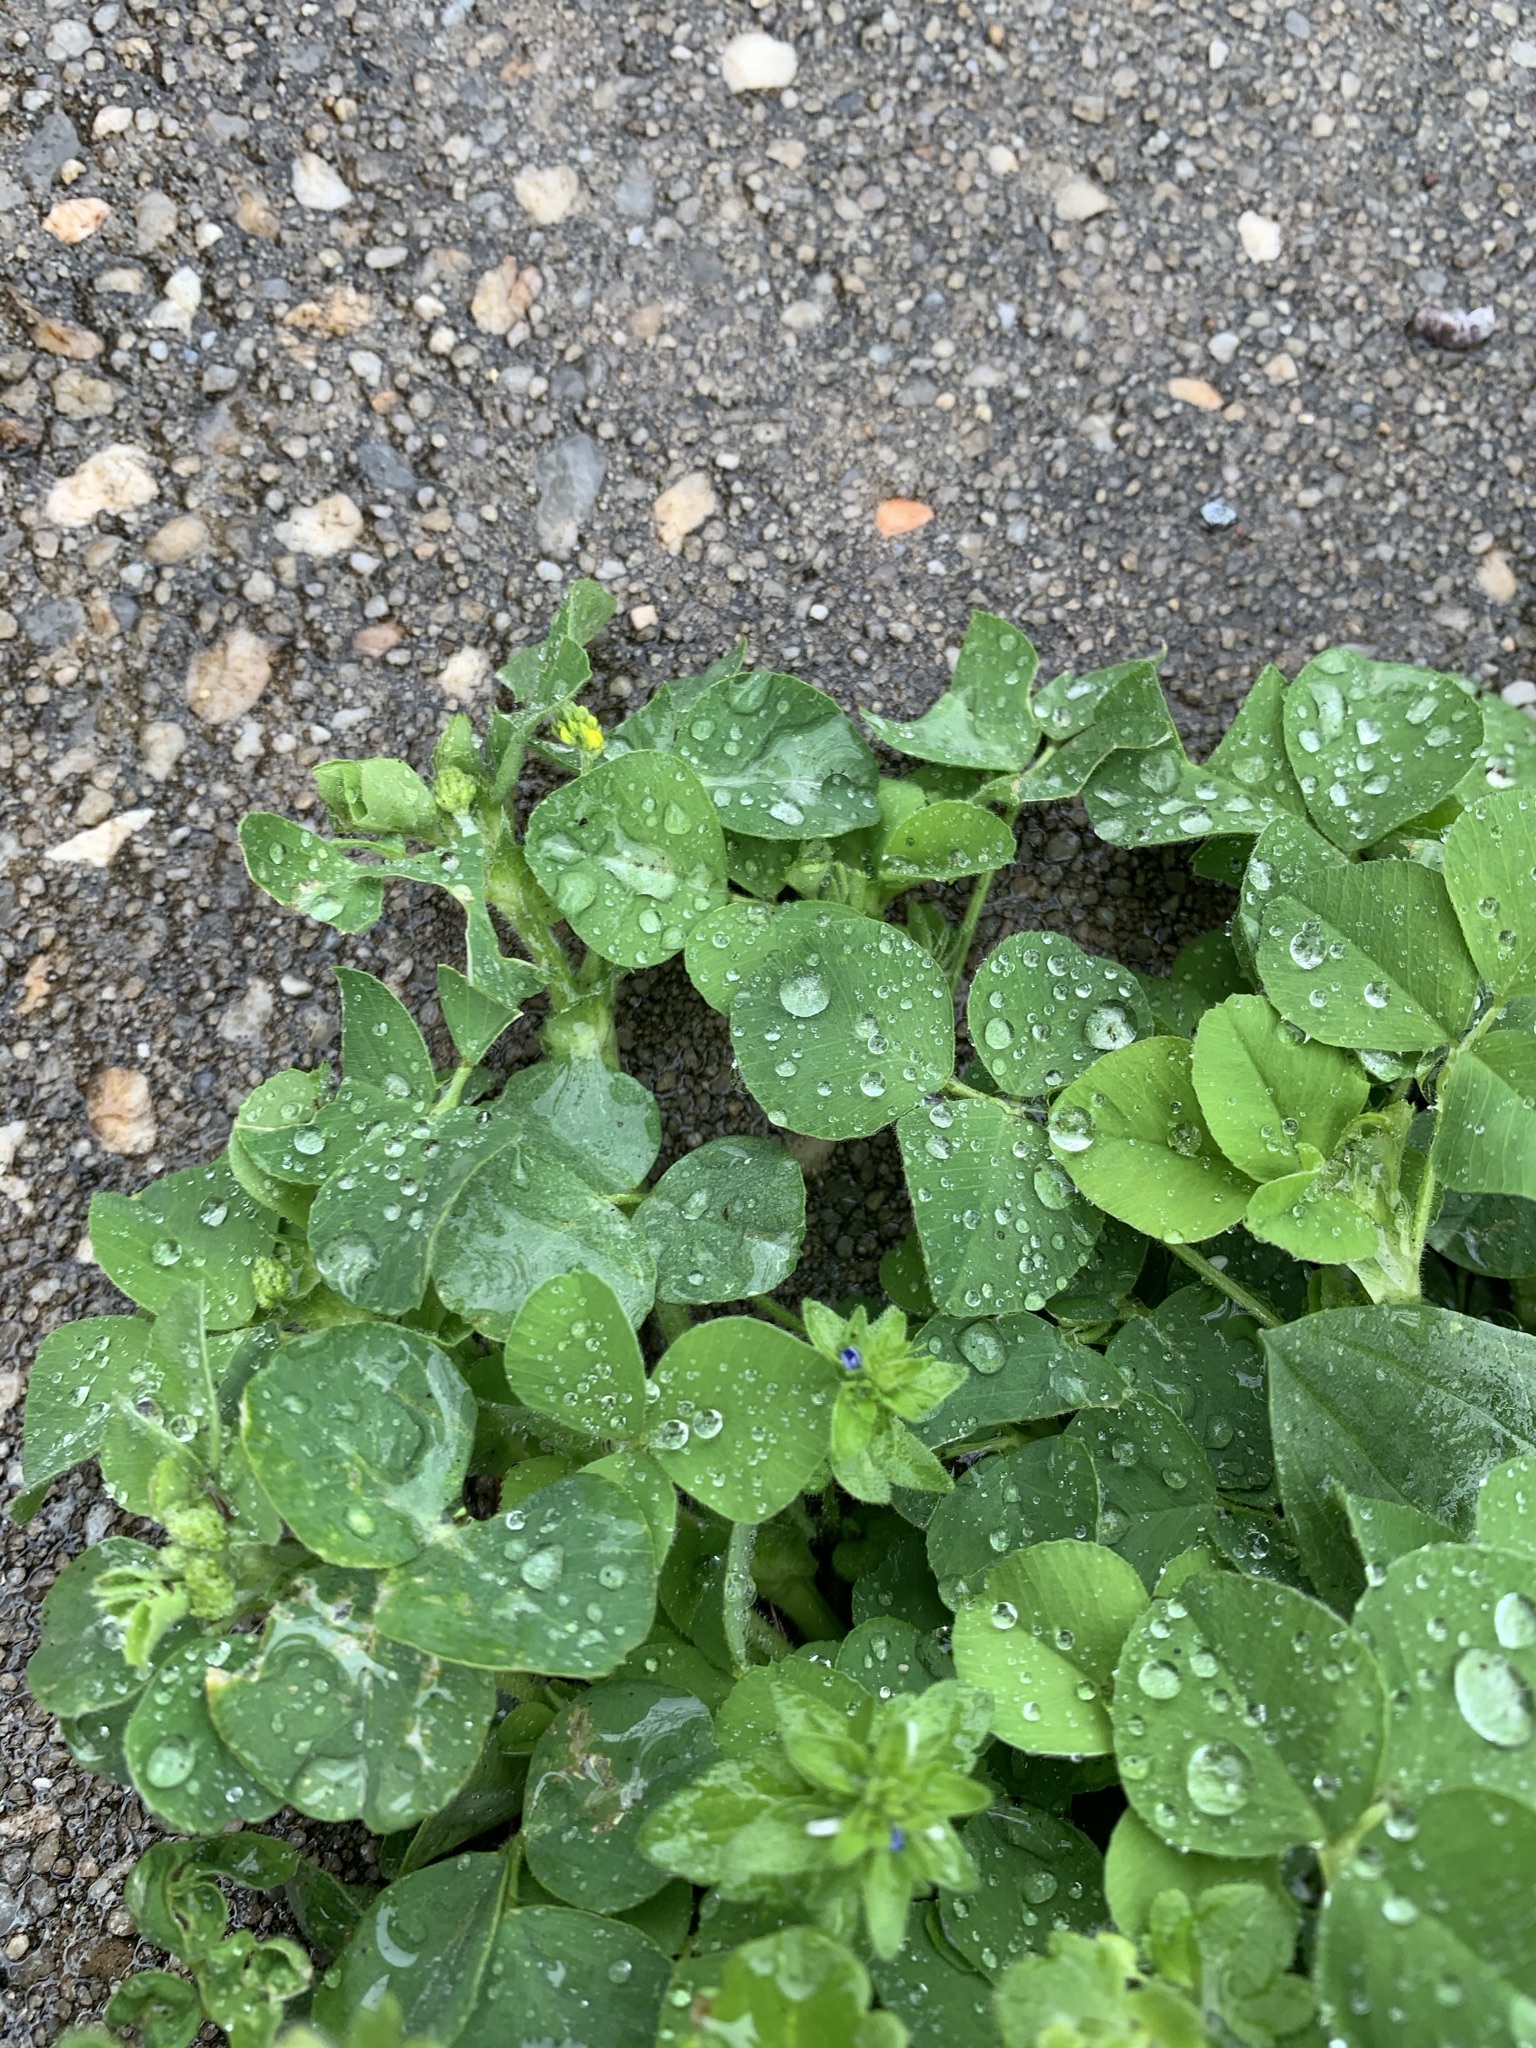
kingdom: Plantae
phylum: Tracheophyta
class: Magnoliopsida
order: Fabales
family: Fabaceae
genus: Medicago
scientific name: Medicago lupulina
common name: Black medick
